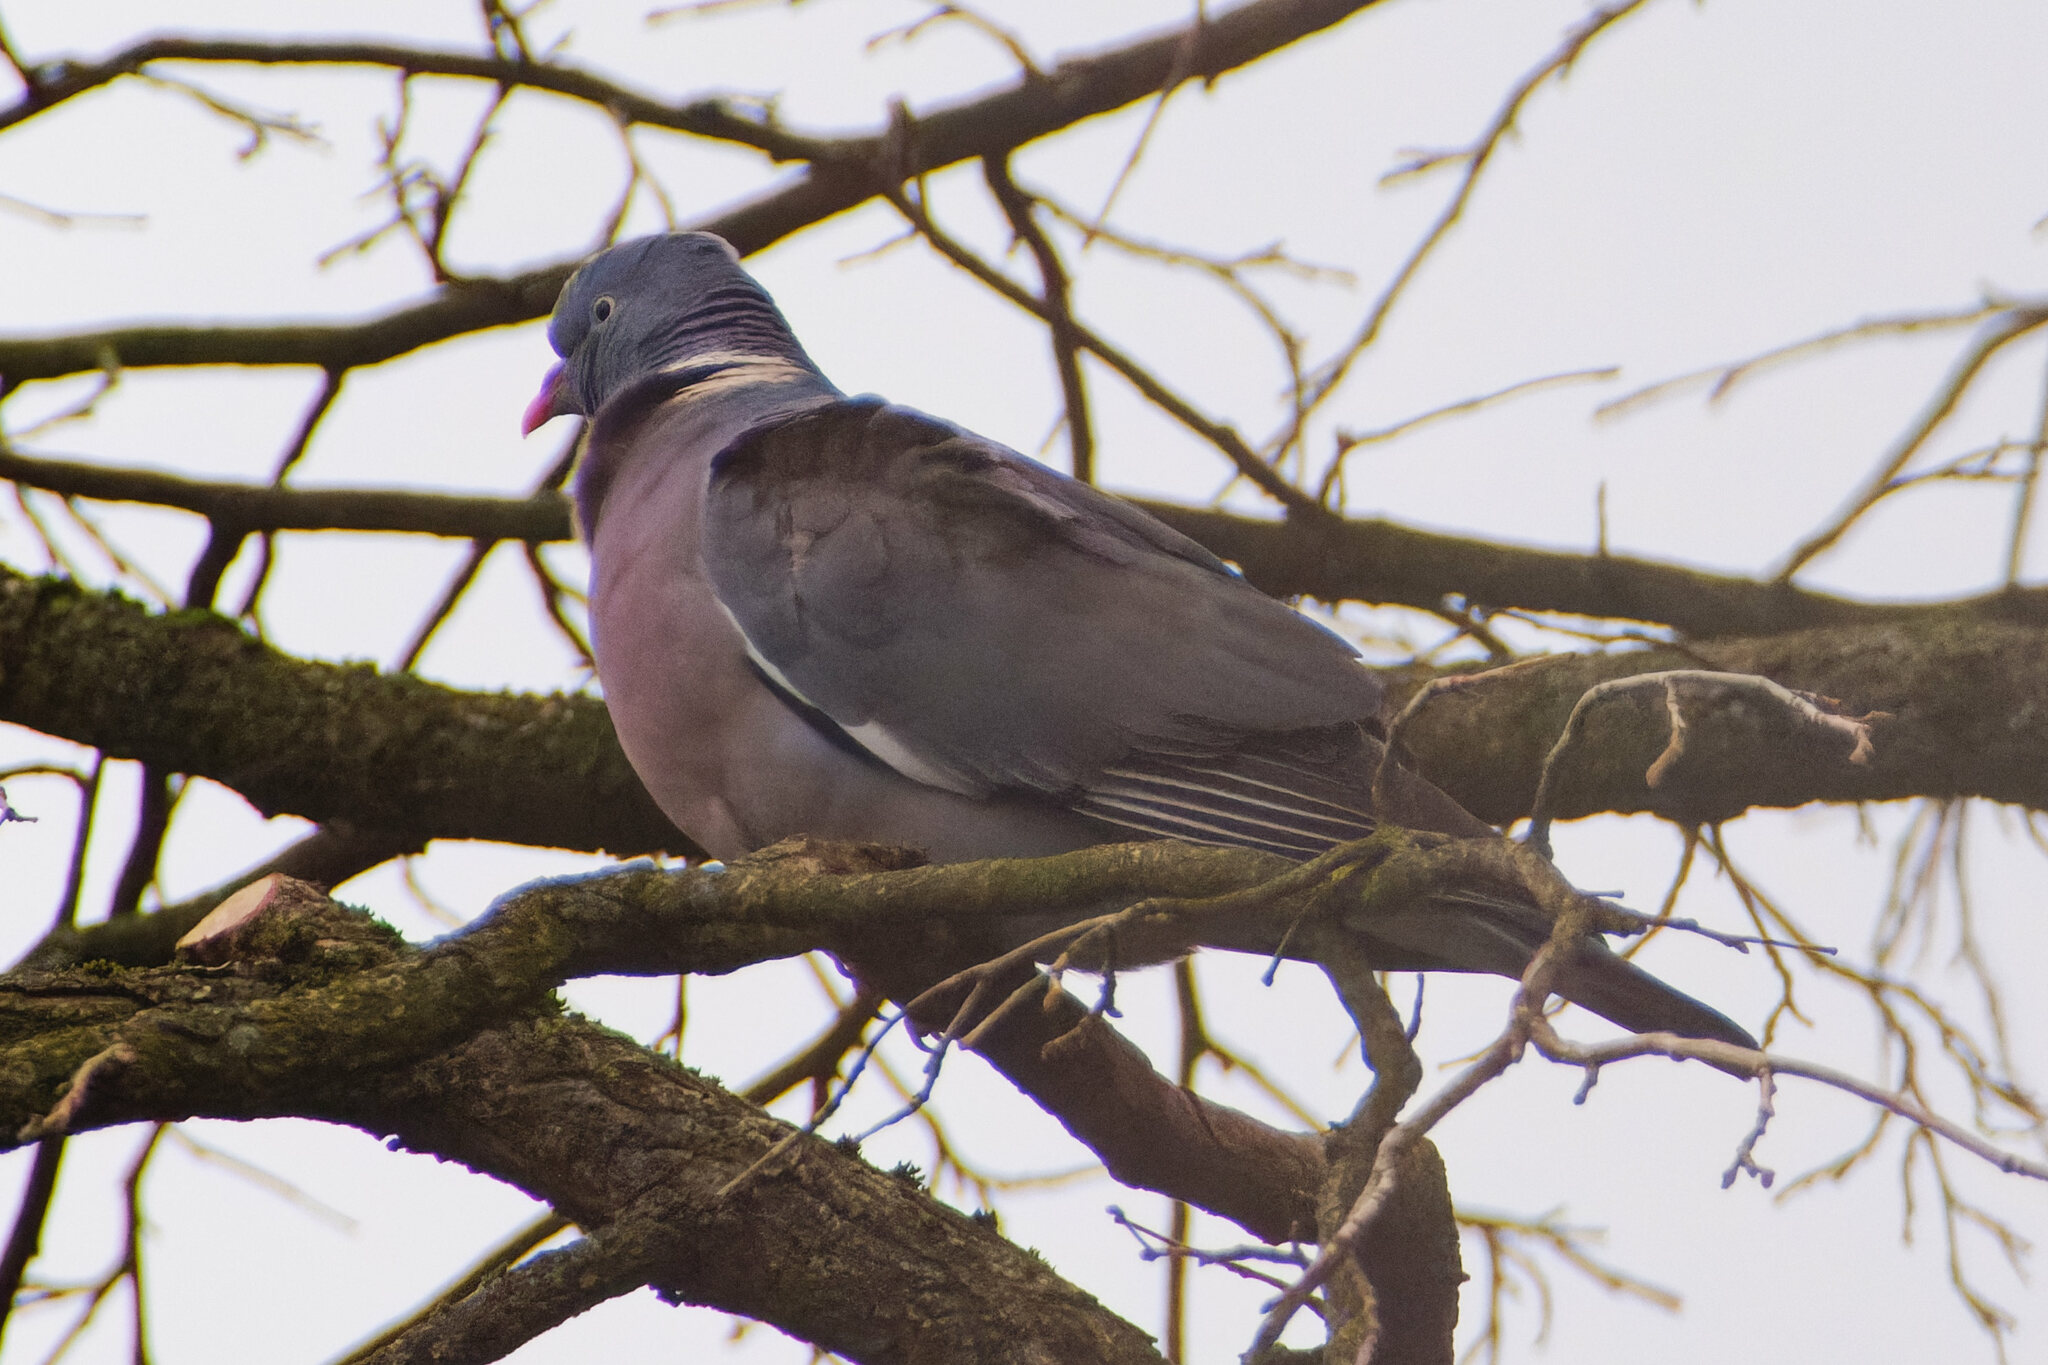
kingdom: Animalia
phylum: Chordata
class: Aves
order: Columbiformes
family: Columbidae
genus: Columba
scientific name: Columba palumbus
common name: Common wood pigeon
